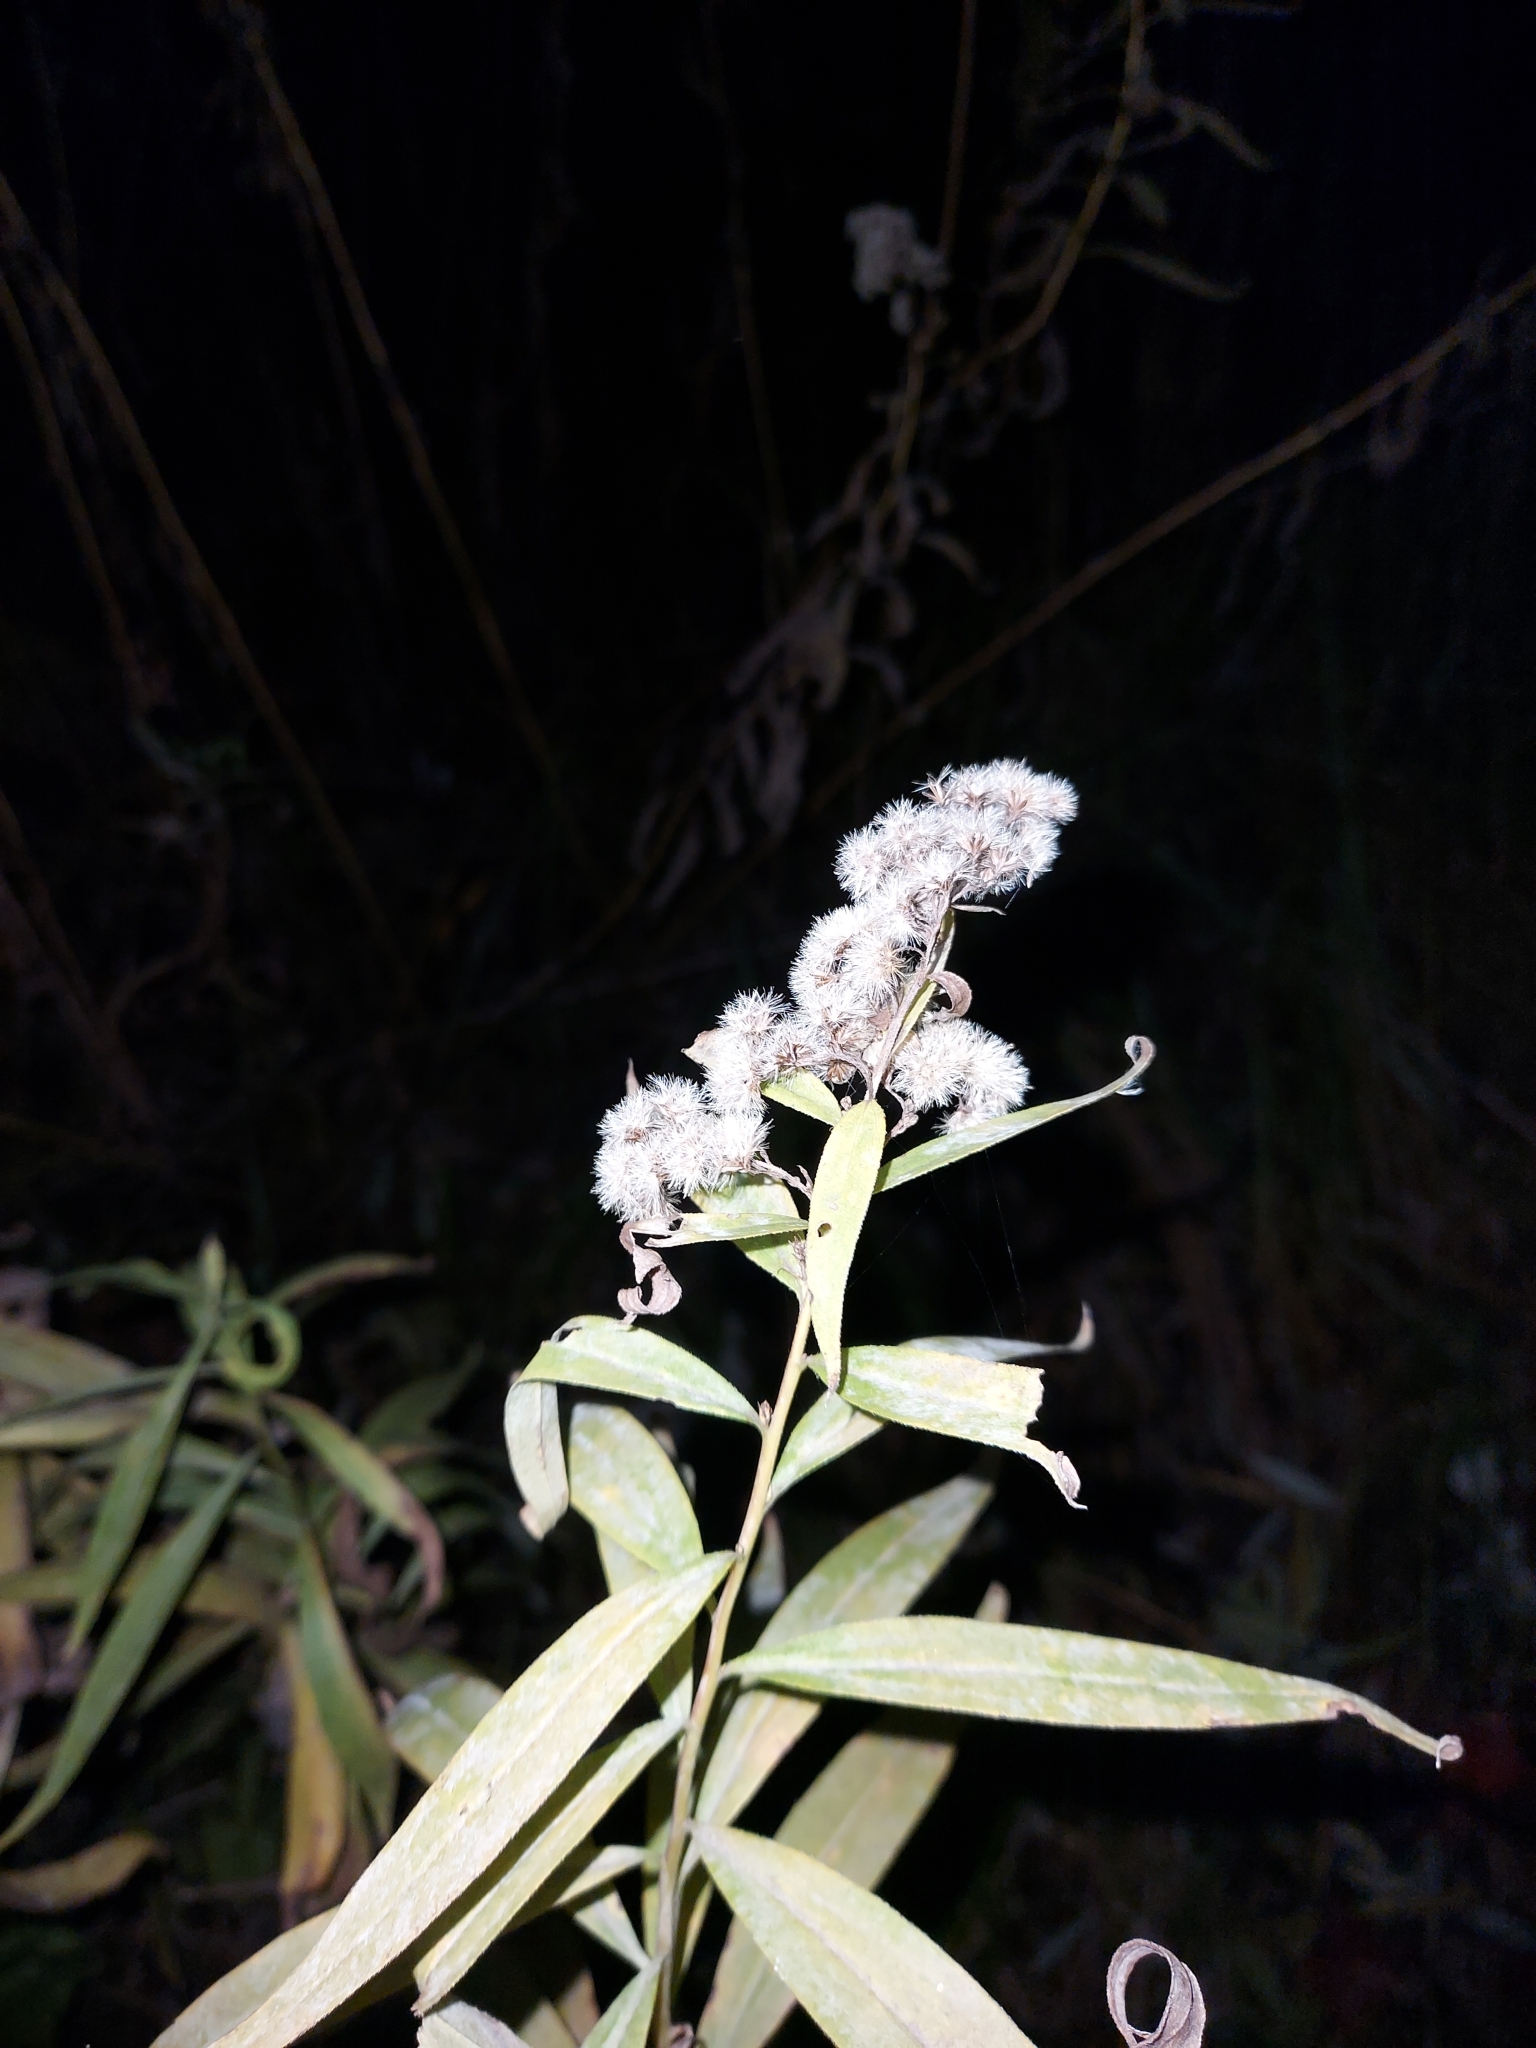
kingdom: Plantae
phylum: Tracheophyta
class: Magnoliopsida
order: Asterales
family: Asteraceae
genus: Solidago
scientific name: Solidago canadensis
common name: Canada goldenrod
